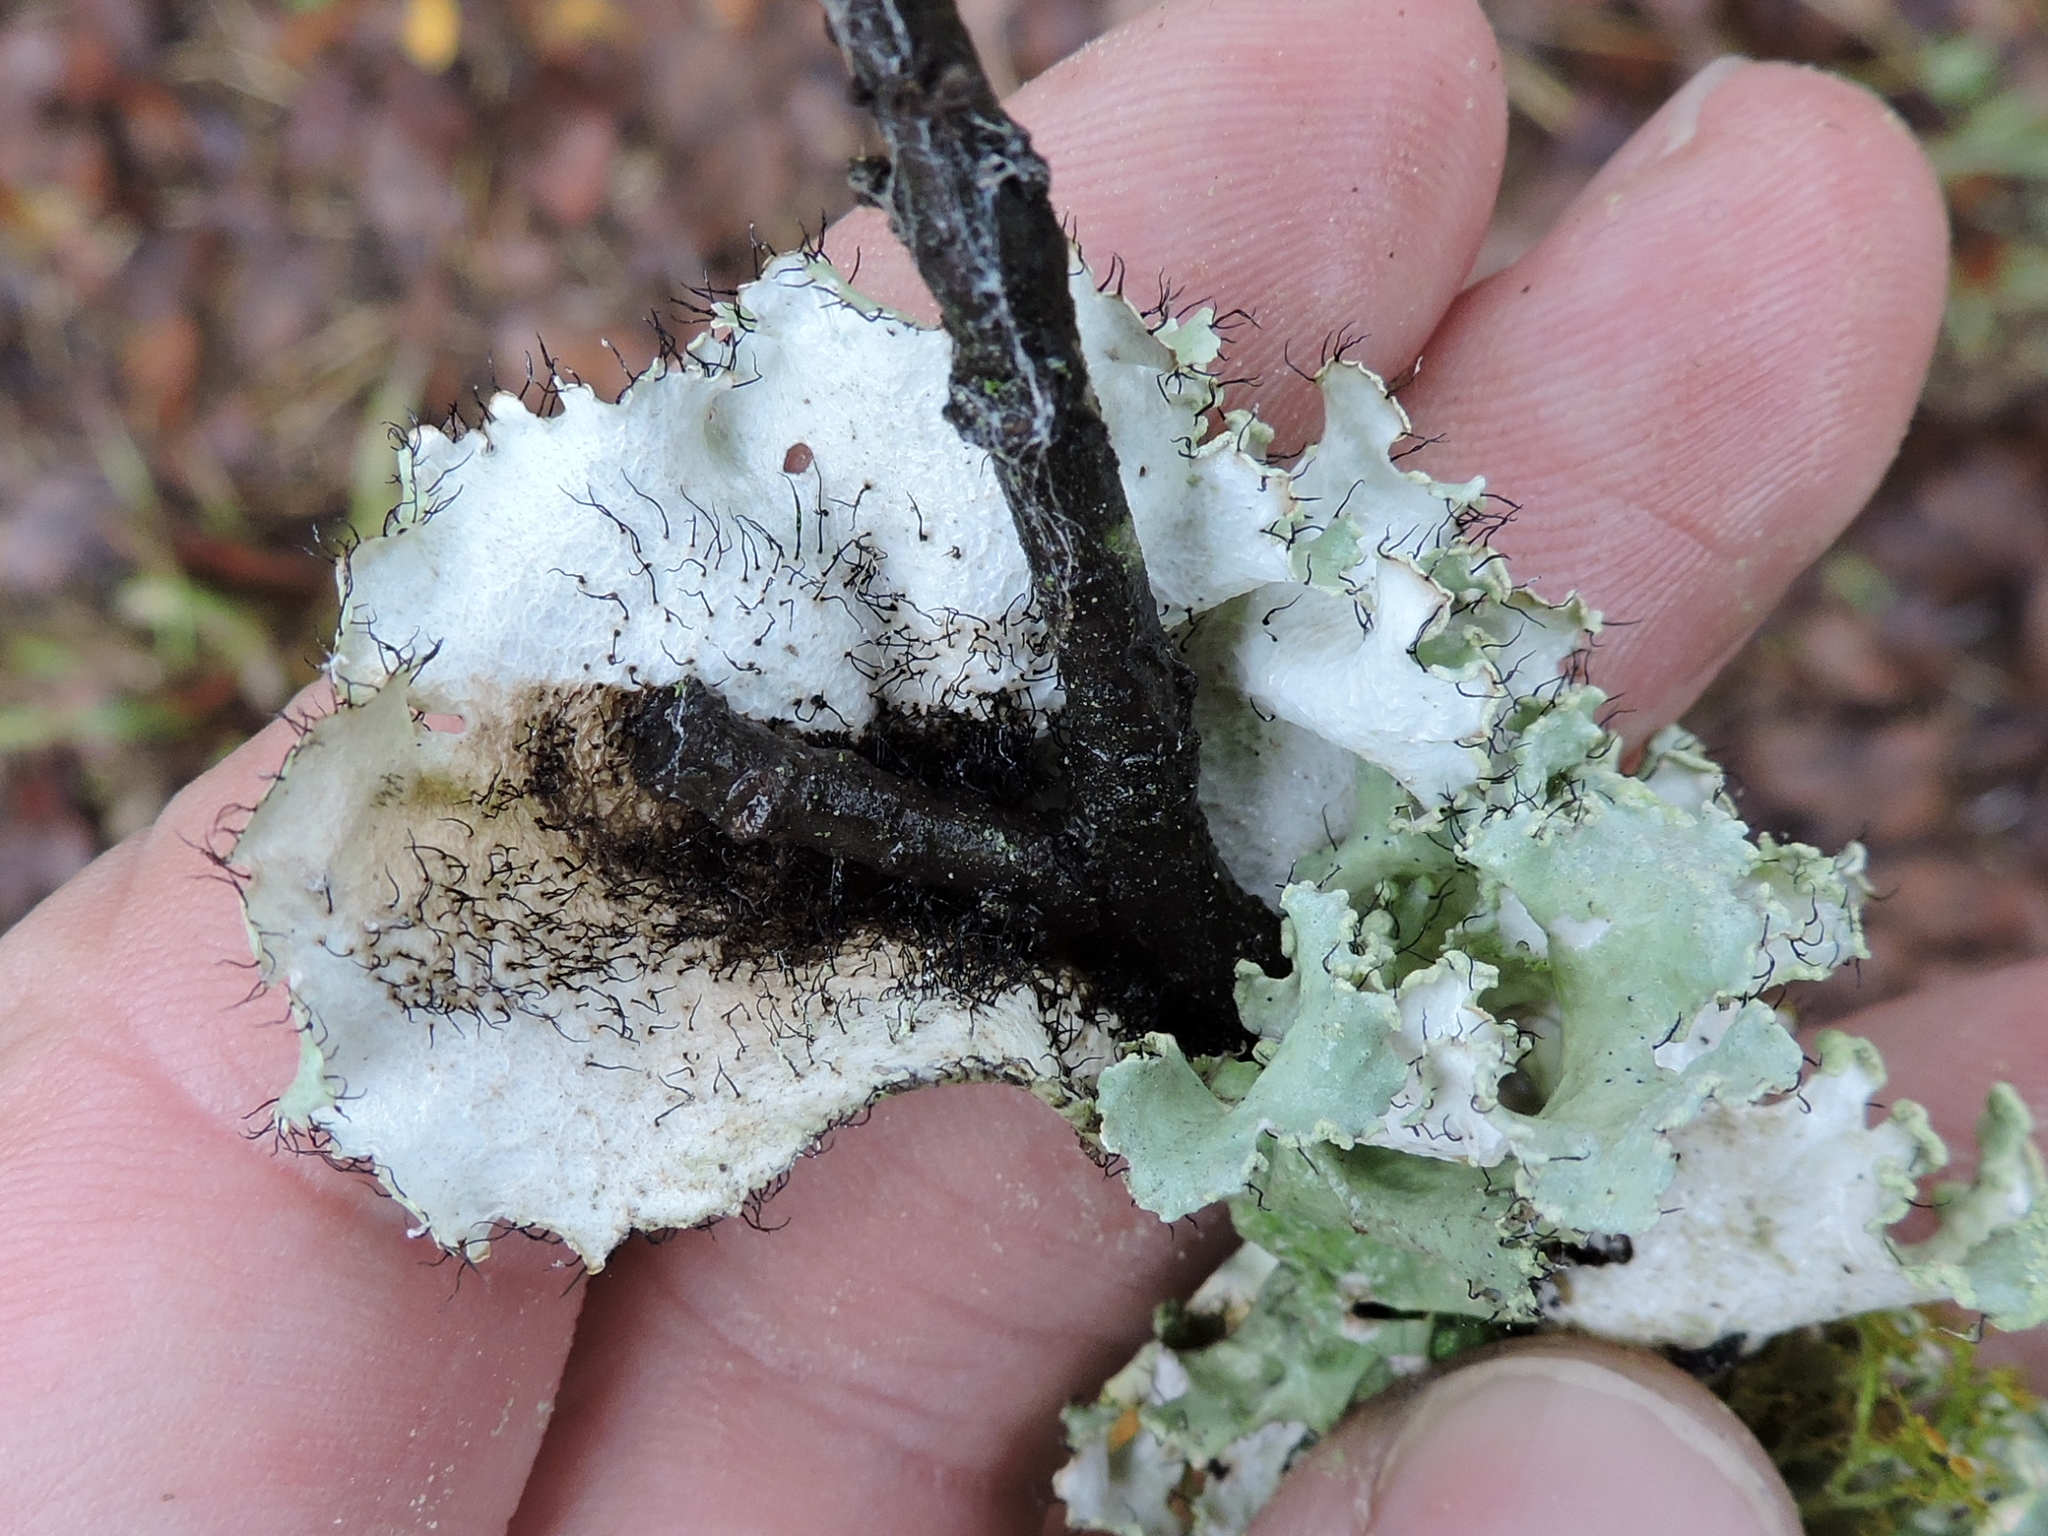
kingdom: Fungi
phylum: Ascomycota
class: Lecanoromycetes
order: Lecanorales
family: Parmeliaceae
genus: Parmotrema
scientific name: Parmotrema hypotropum
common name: Powdered ruffle lichen
